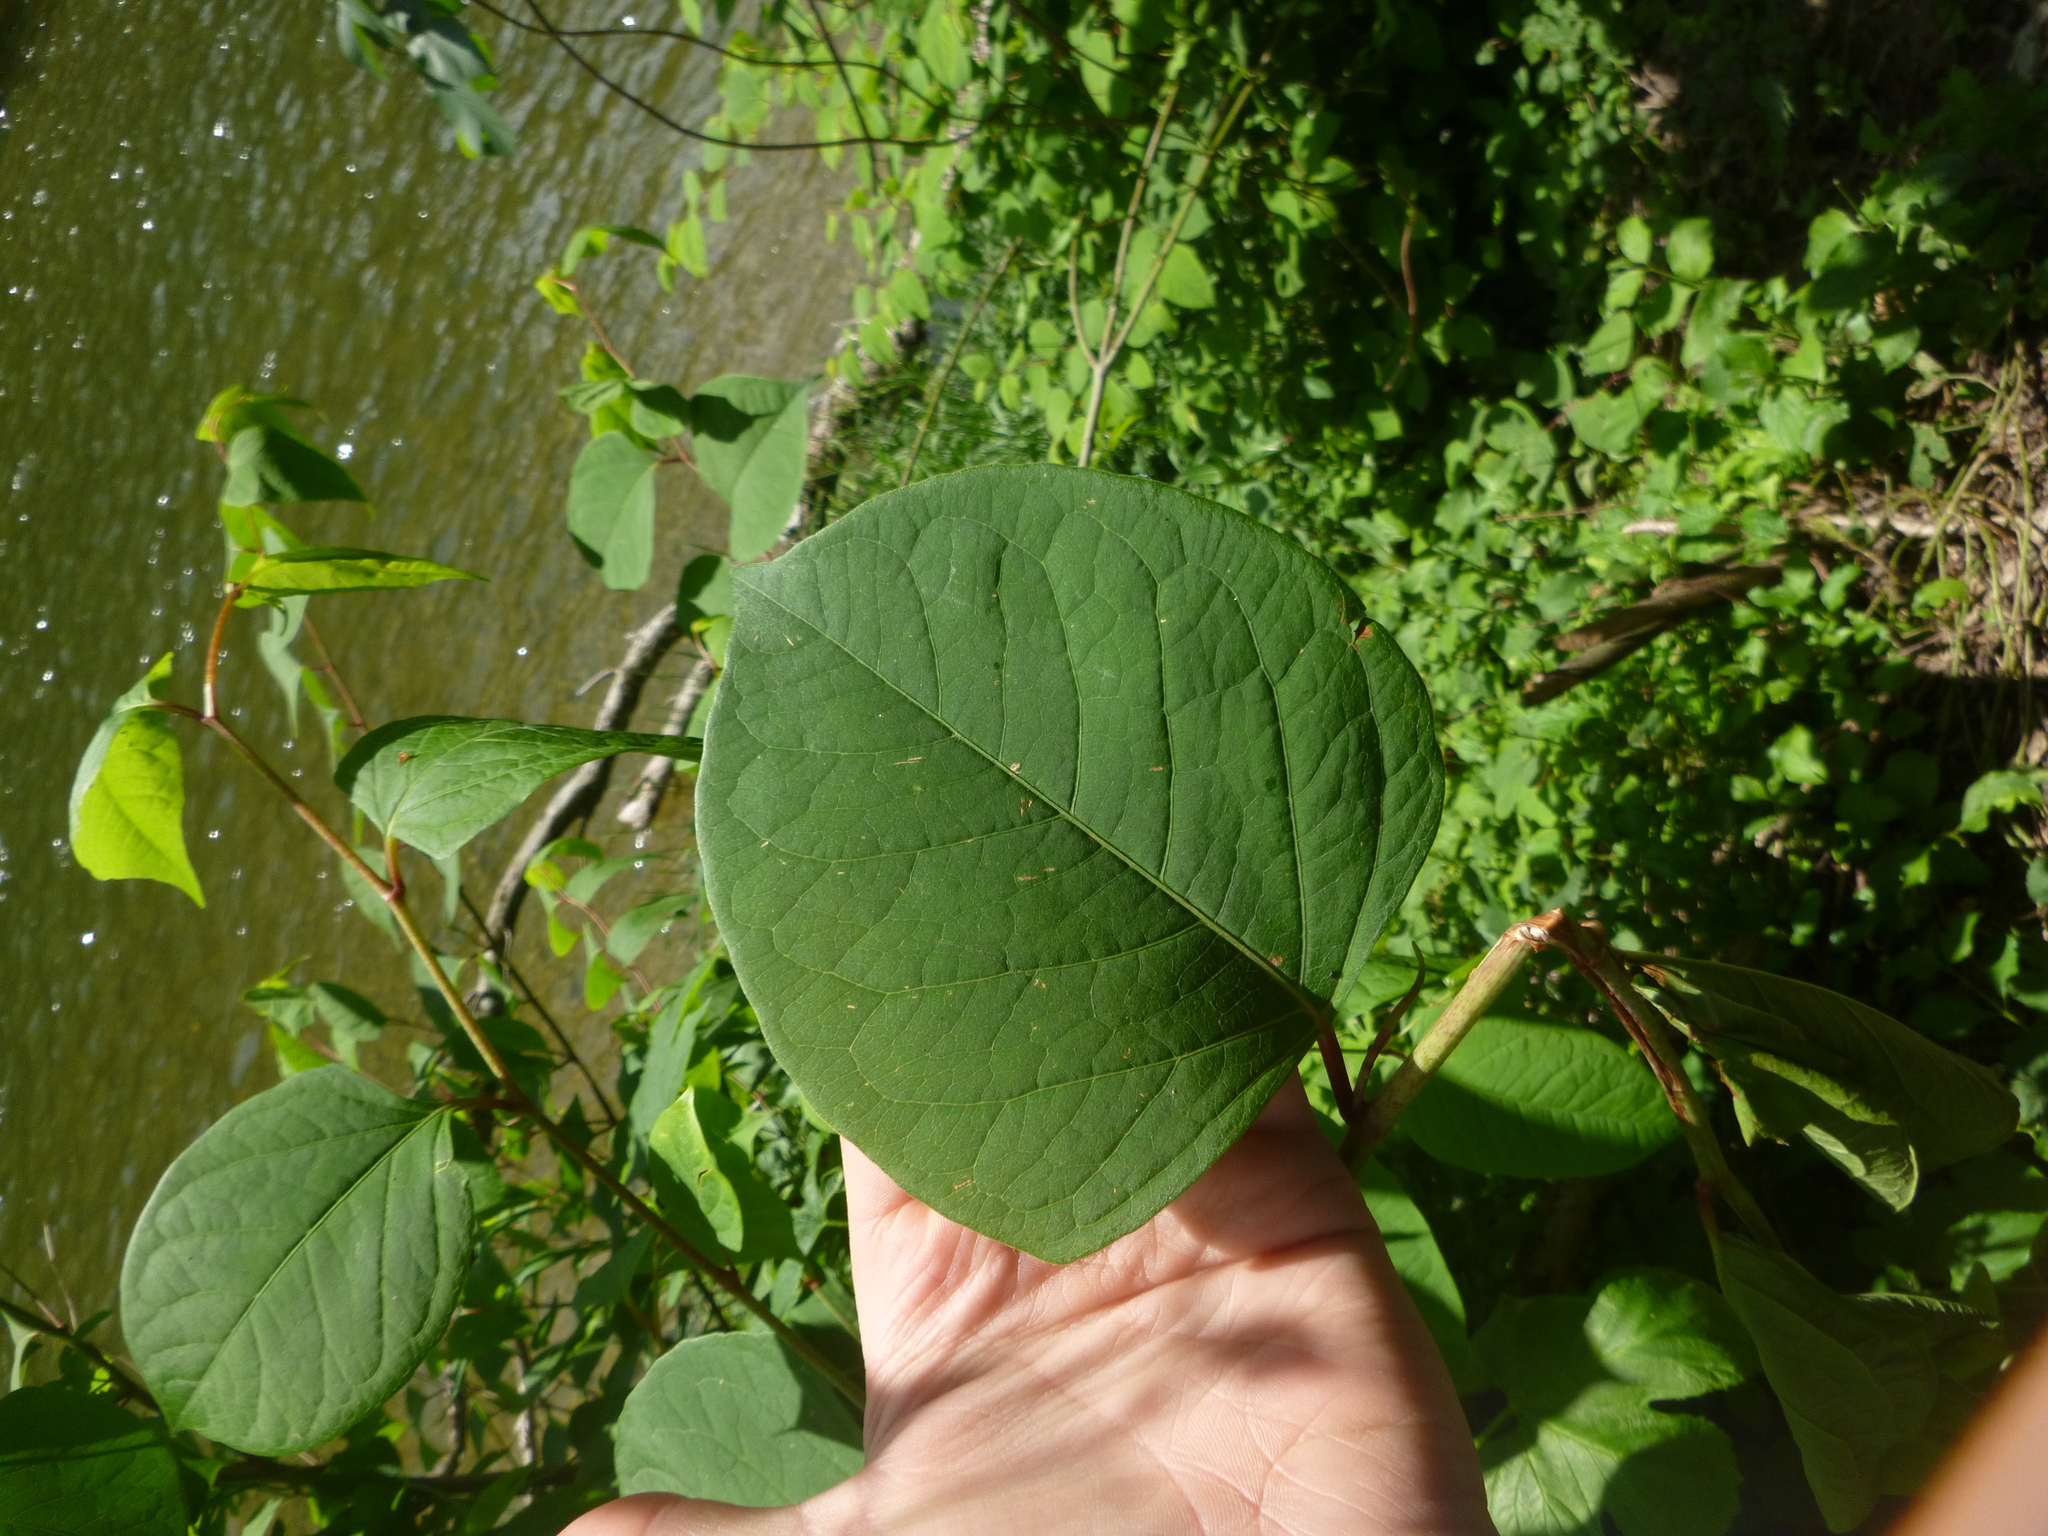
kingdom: Plantae
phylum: Tracheophyta
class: Magnoliopsida
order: Caryophyllales
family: Polygonaceae
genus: Reynoutria
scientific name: Reynoutria bohemica
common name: Bohemian knotweed
